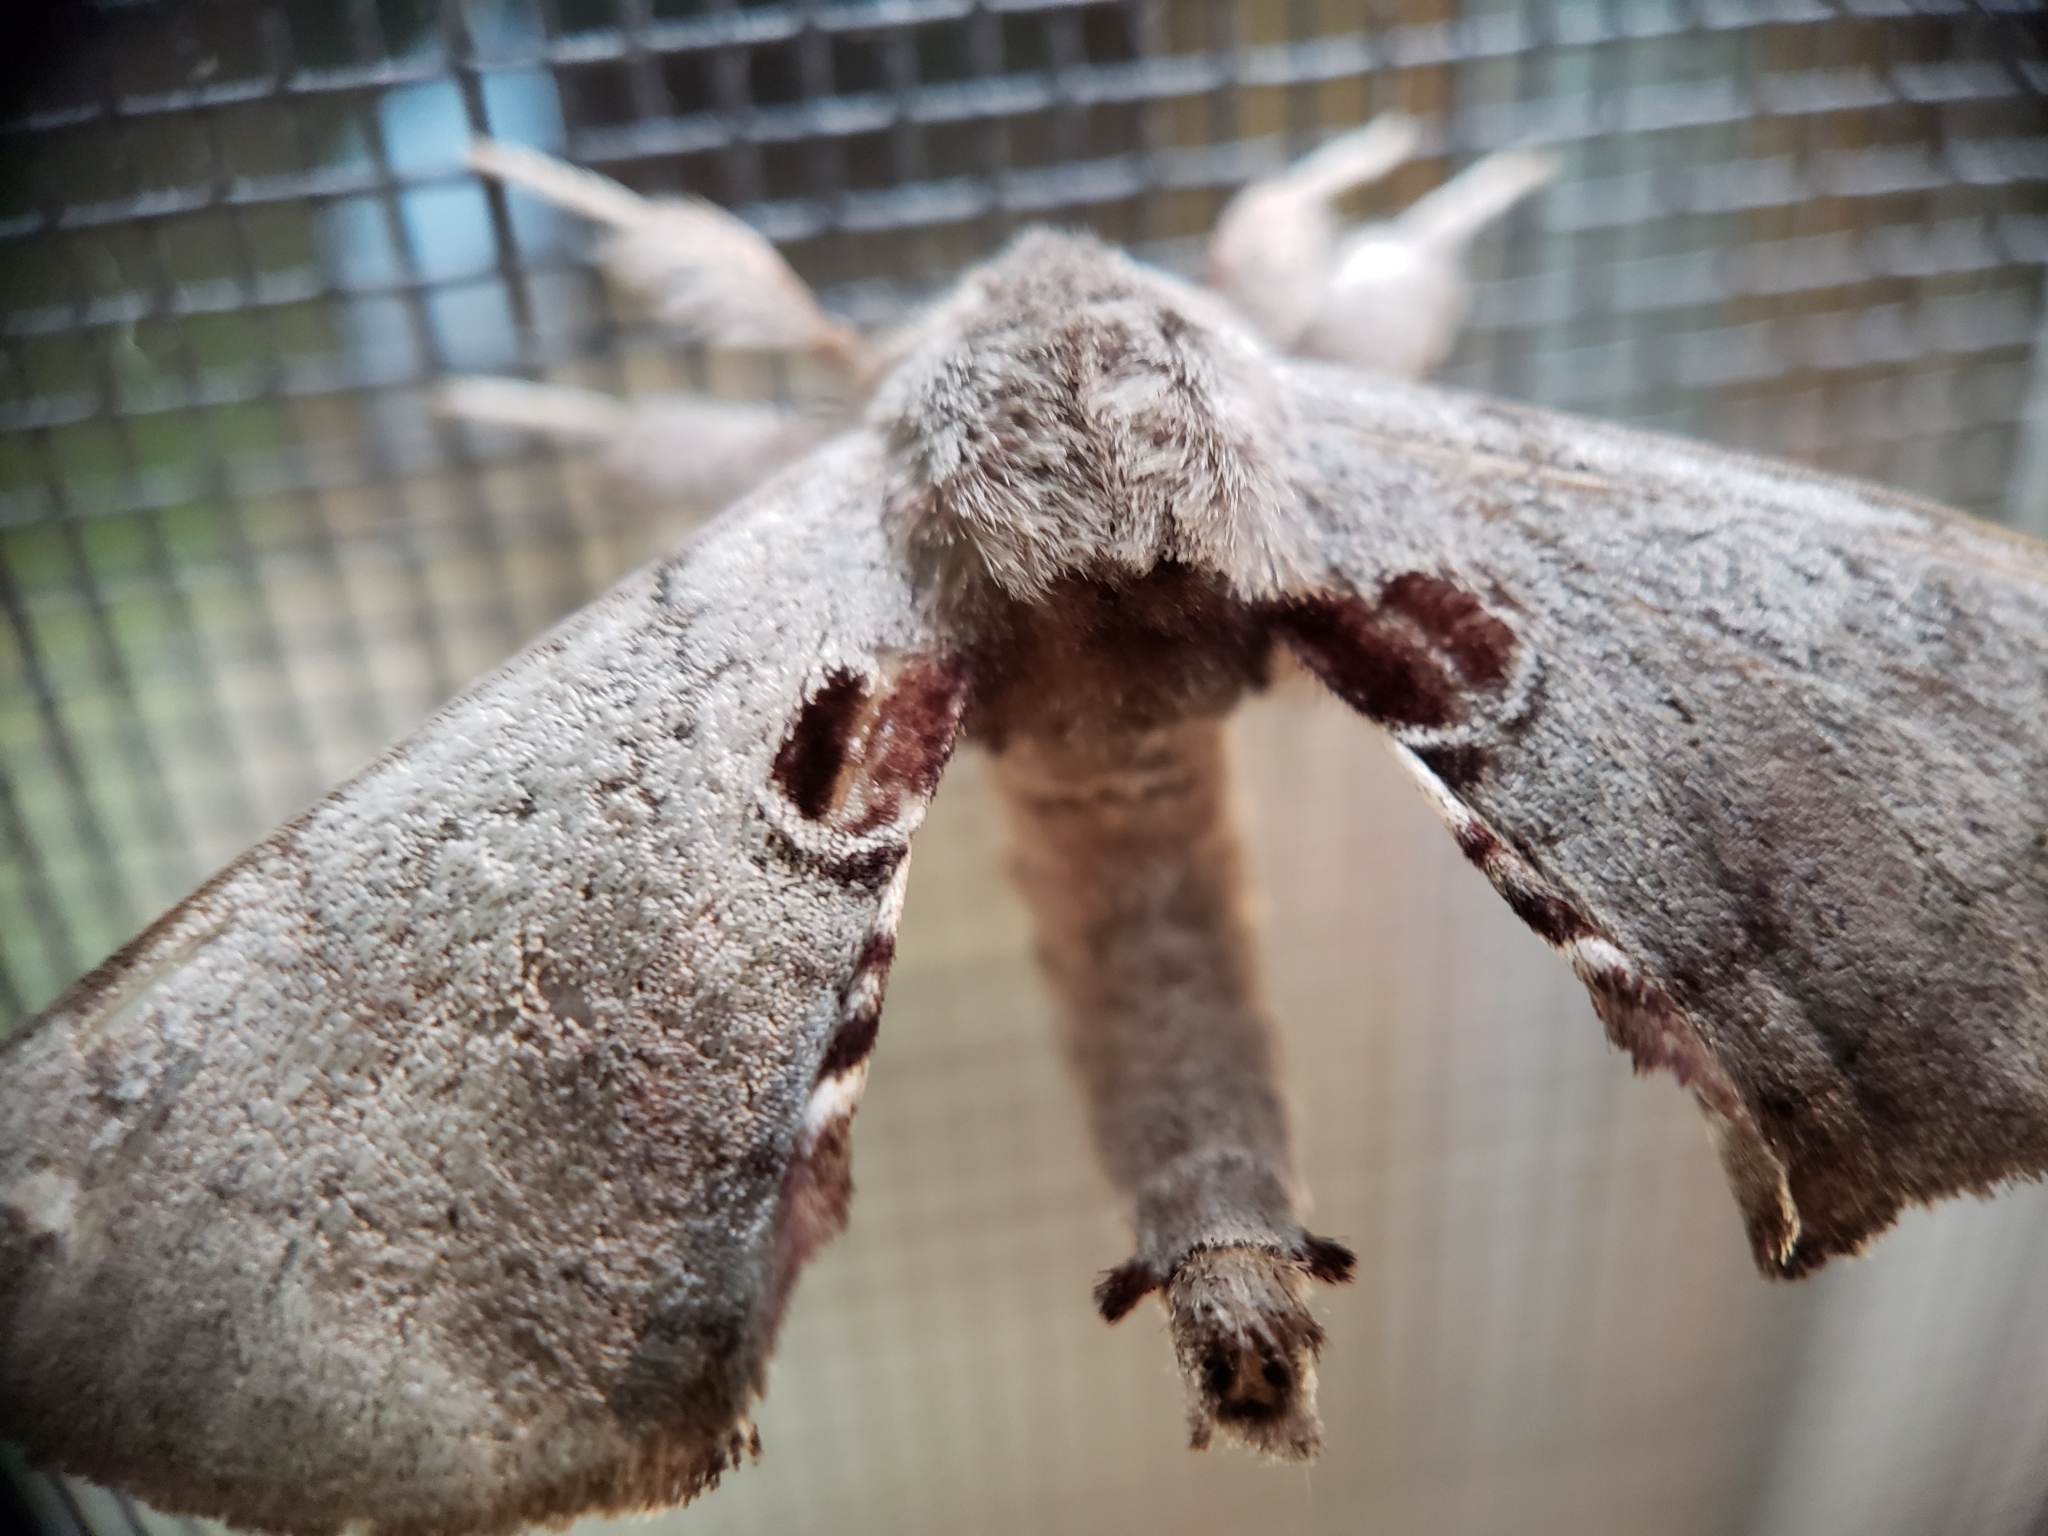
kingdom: Animalia
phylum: Arthropoda
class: Insecta
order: Lepidoptera
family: Apatelodidae
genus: Hygrochroa
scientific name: Hygrochroa Apatelodes torrefacta
